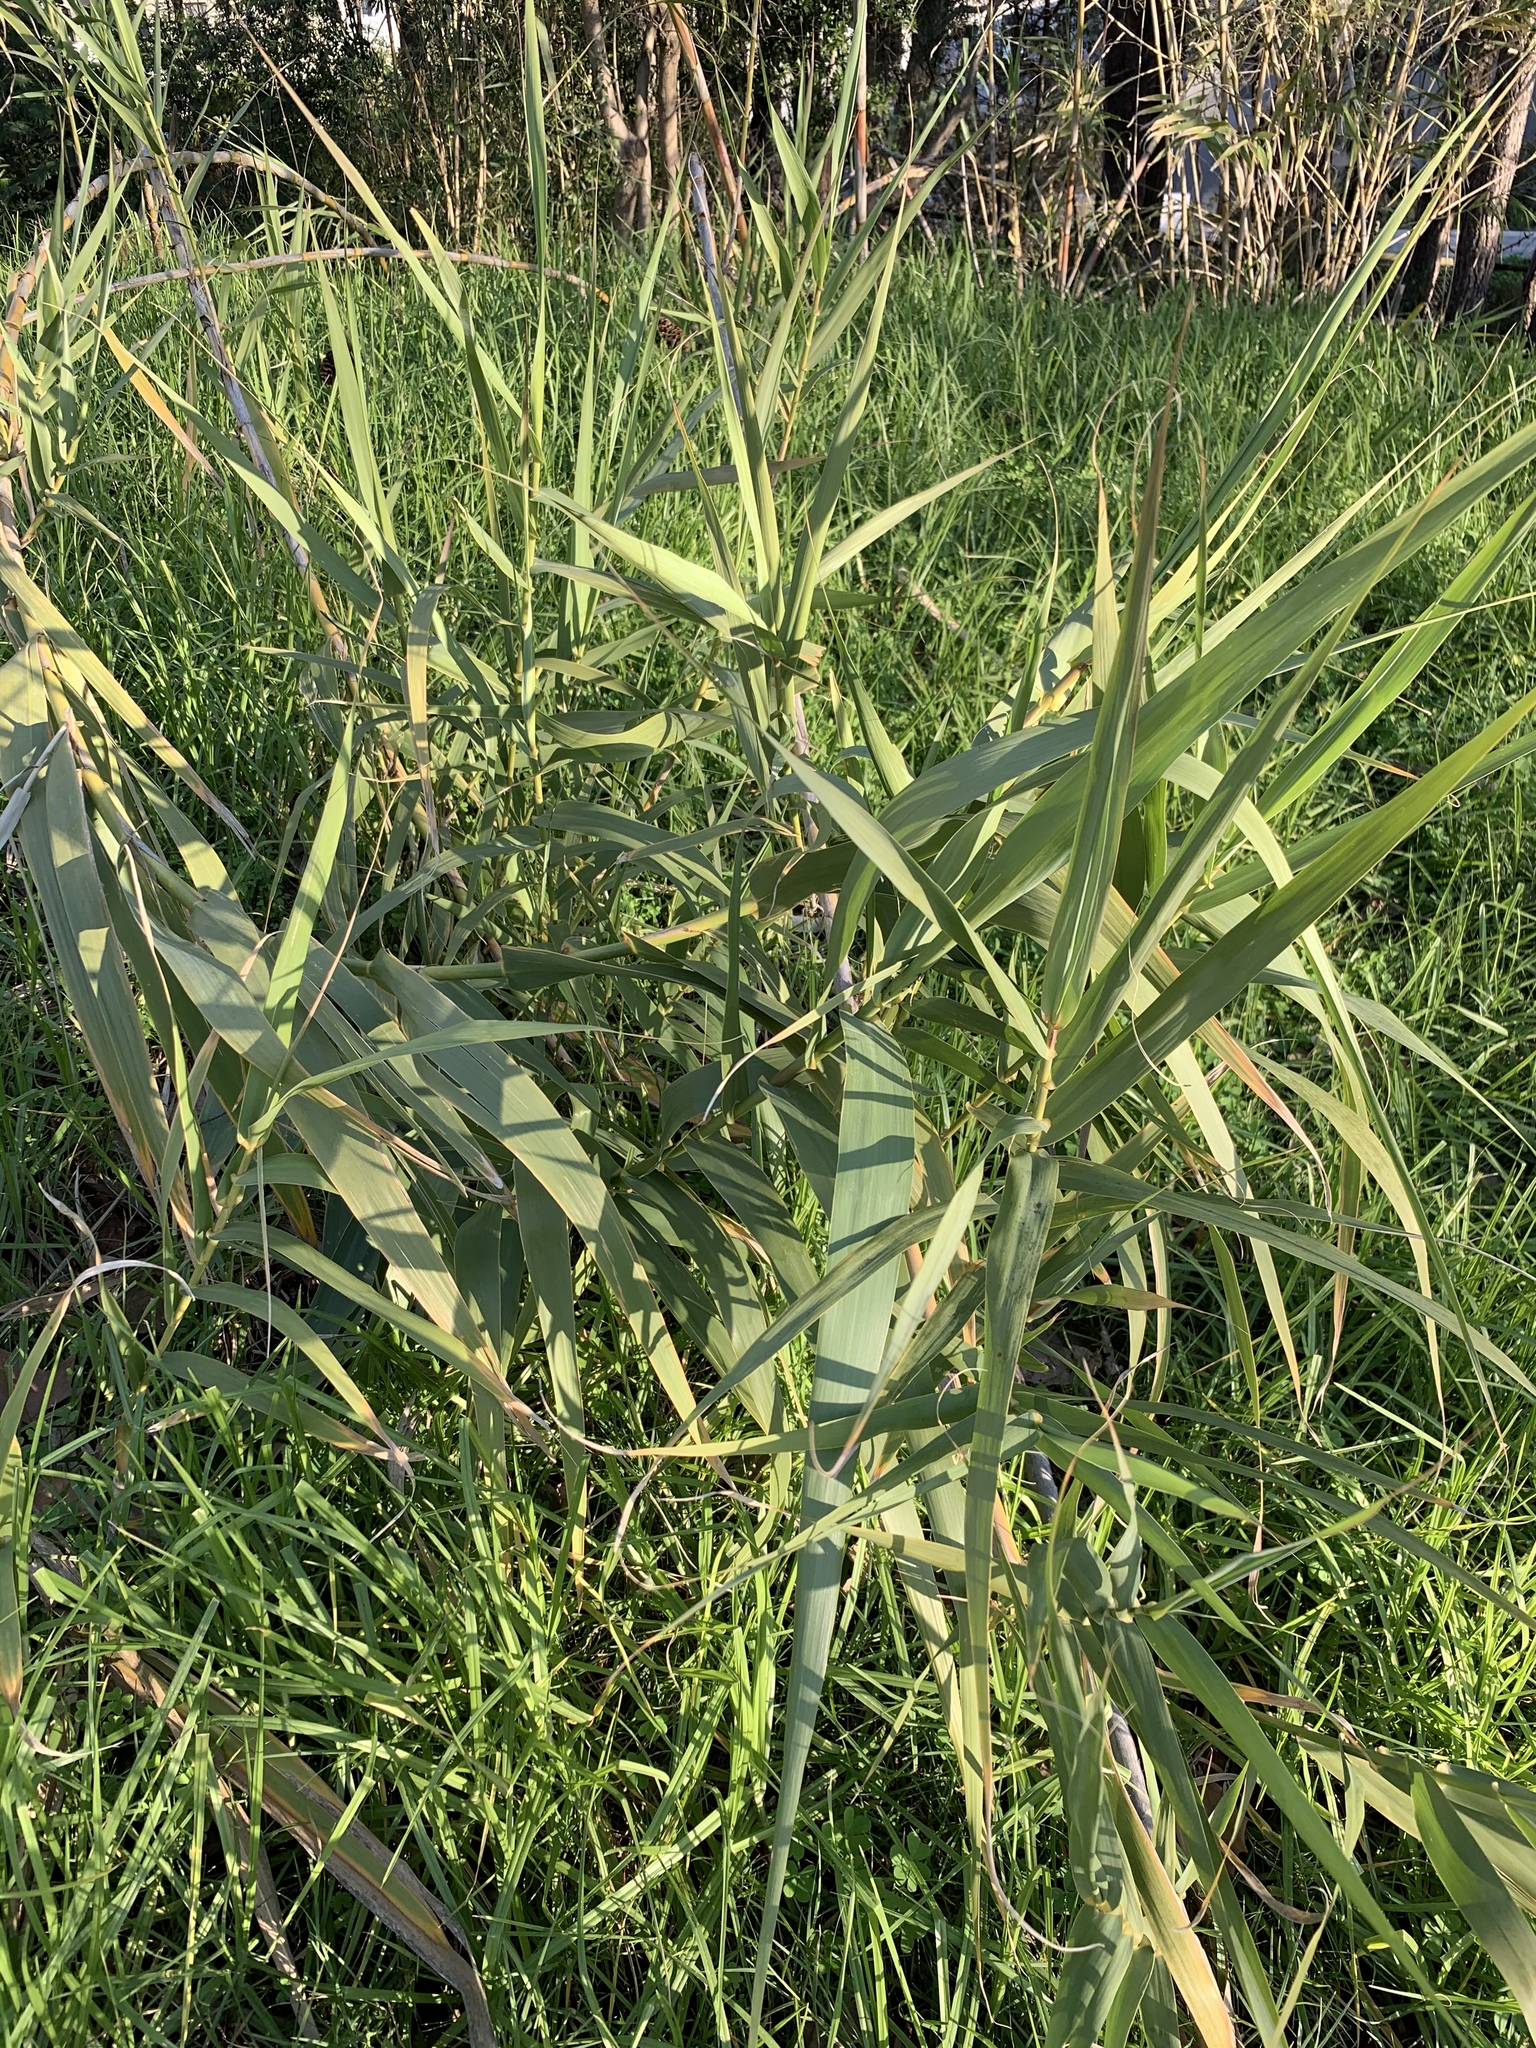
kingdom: Plantae
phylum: Tracheophyta
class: Liliopsida
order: Poales
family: Poaceae
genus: Arundo
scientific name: Arundo donax
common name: Giant reed
